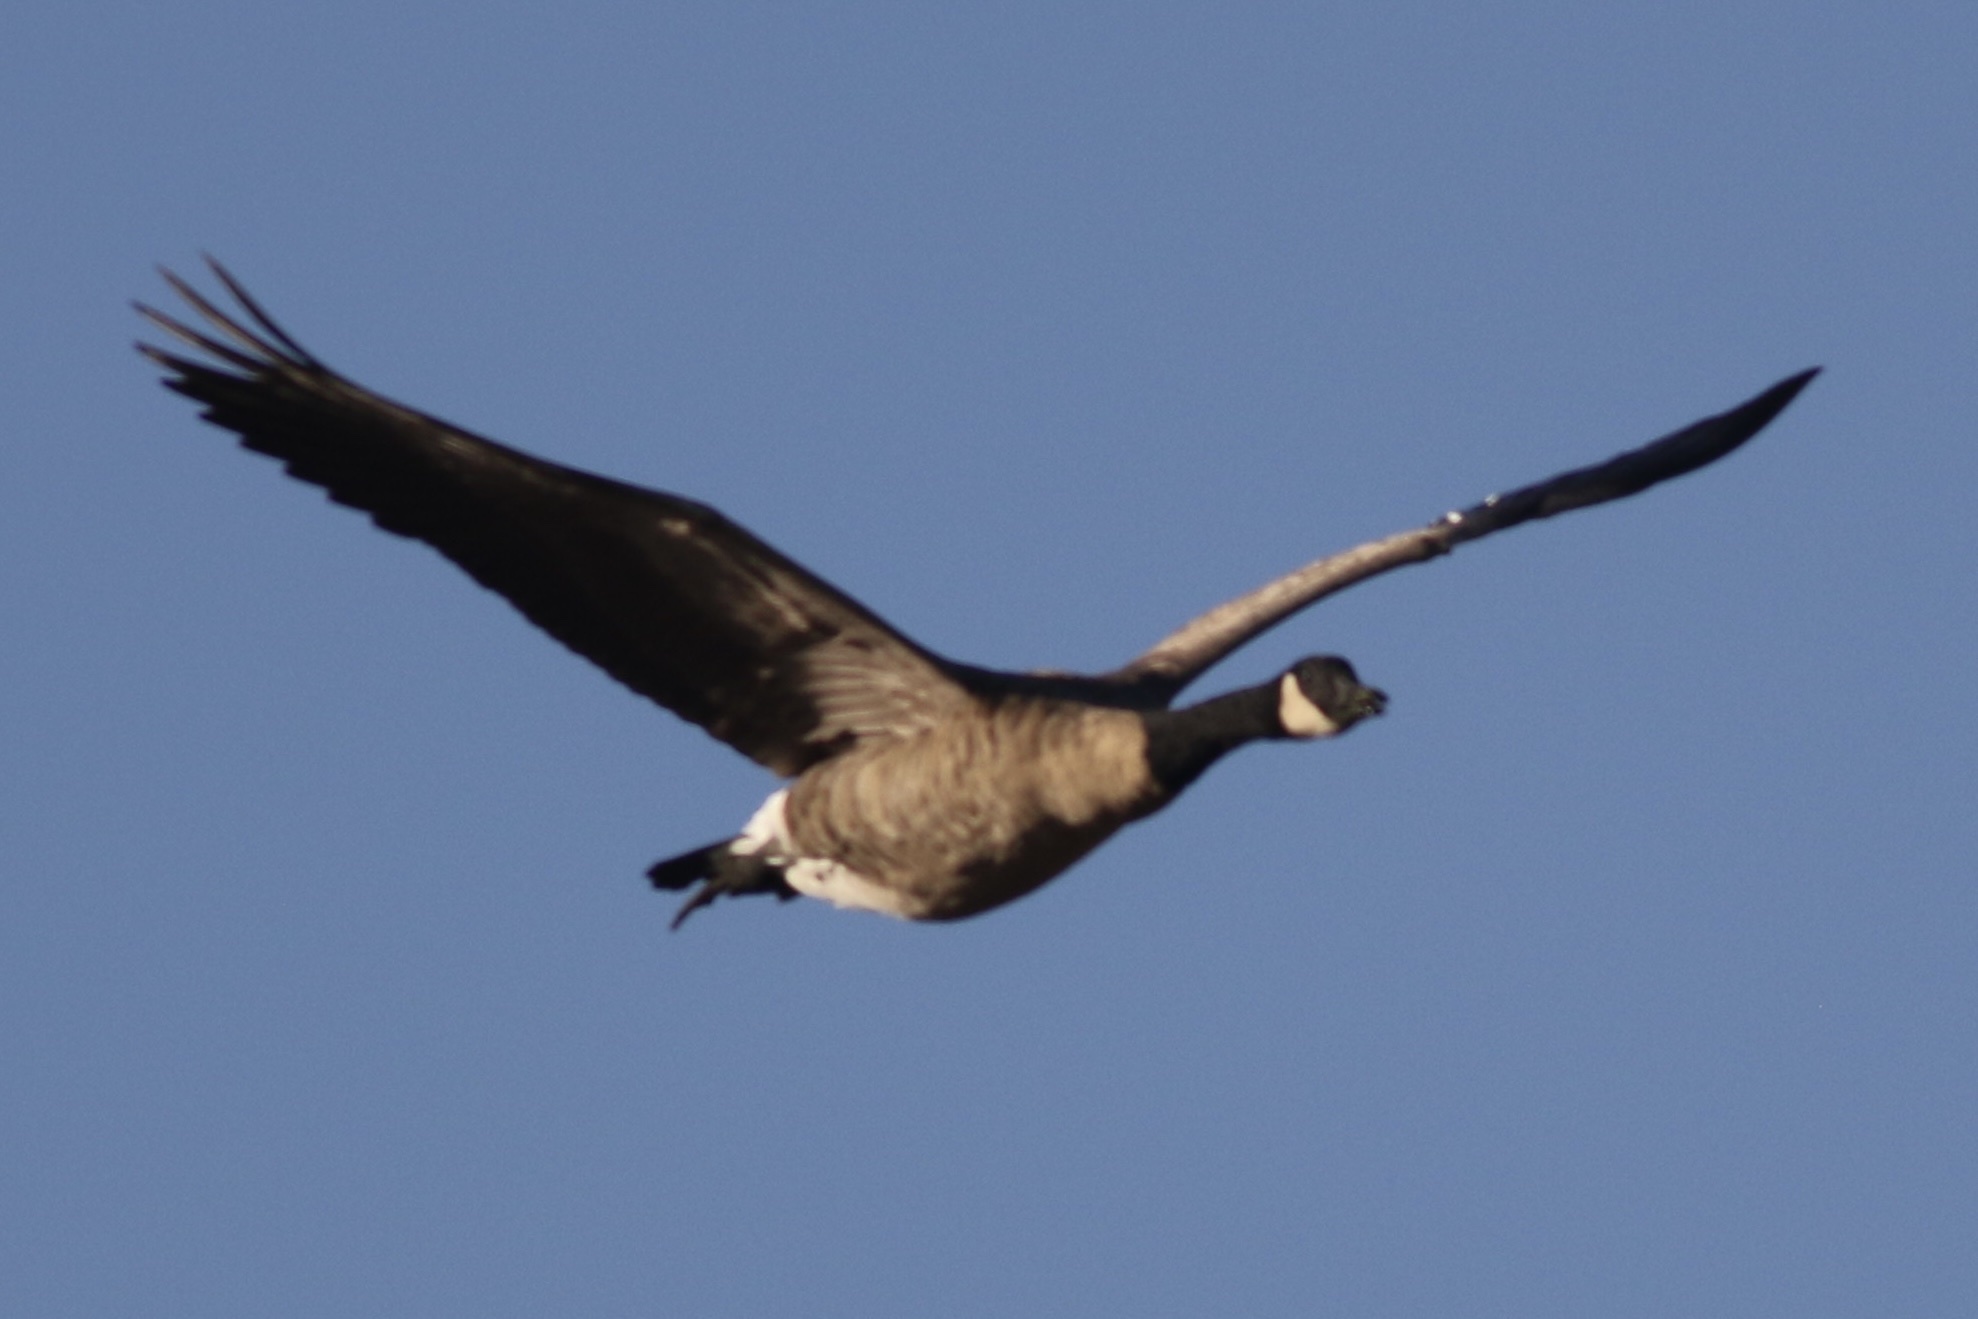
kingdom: Animalia
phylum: Chordata
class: Aves
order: Anseriformes
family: Anatidae
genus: Branta
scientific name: Branta canadensis
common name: Canada goose
